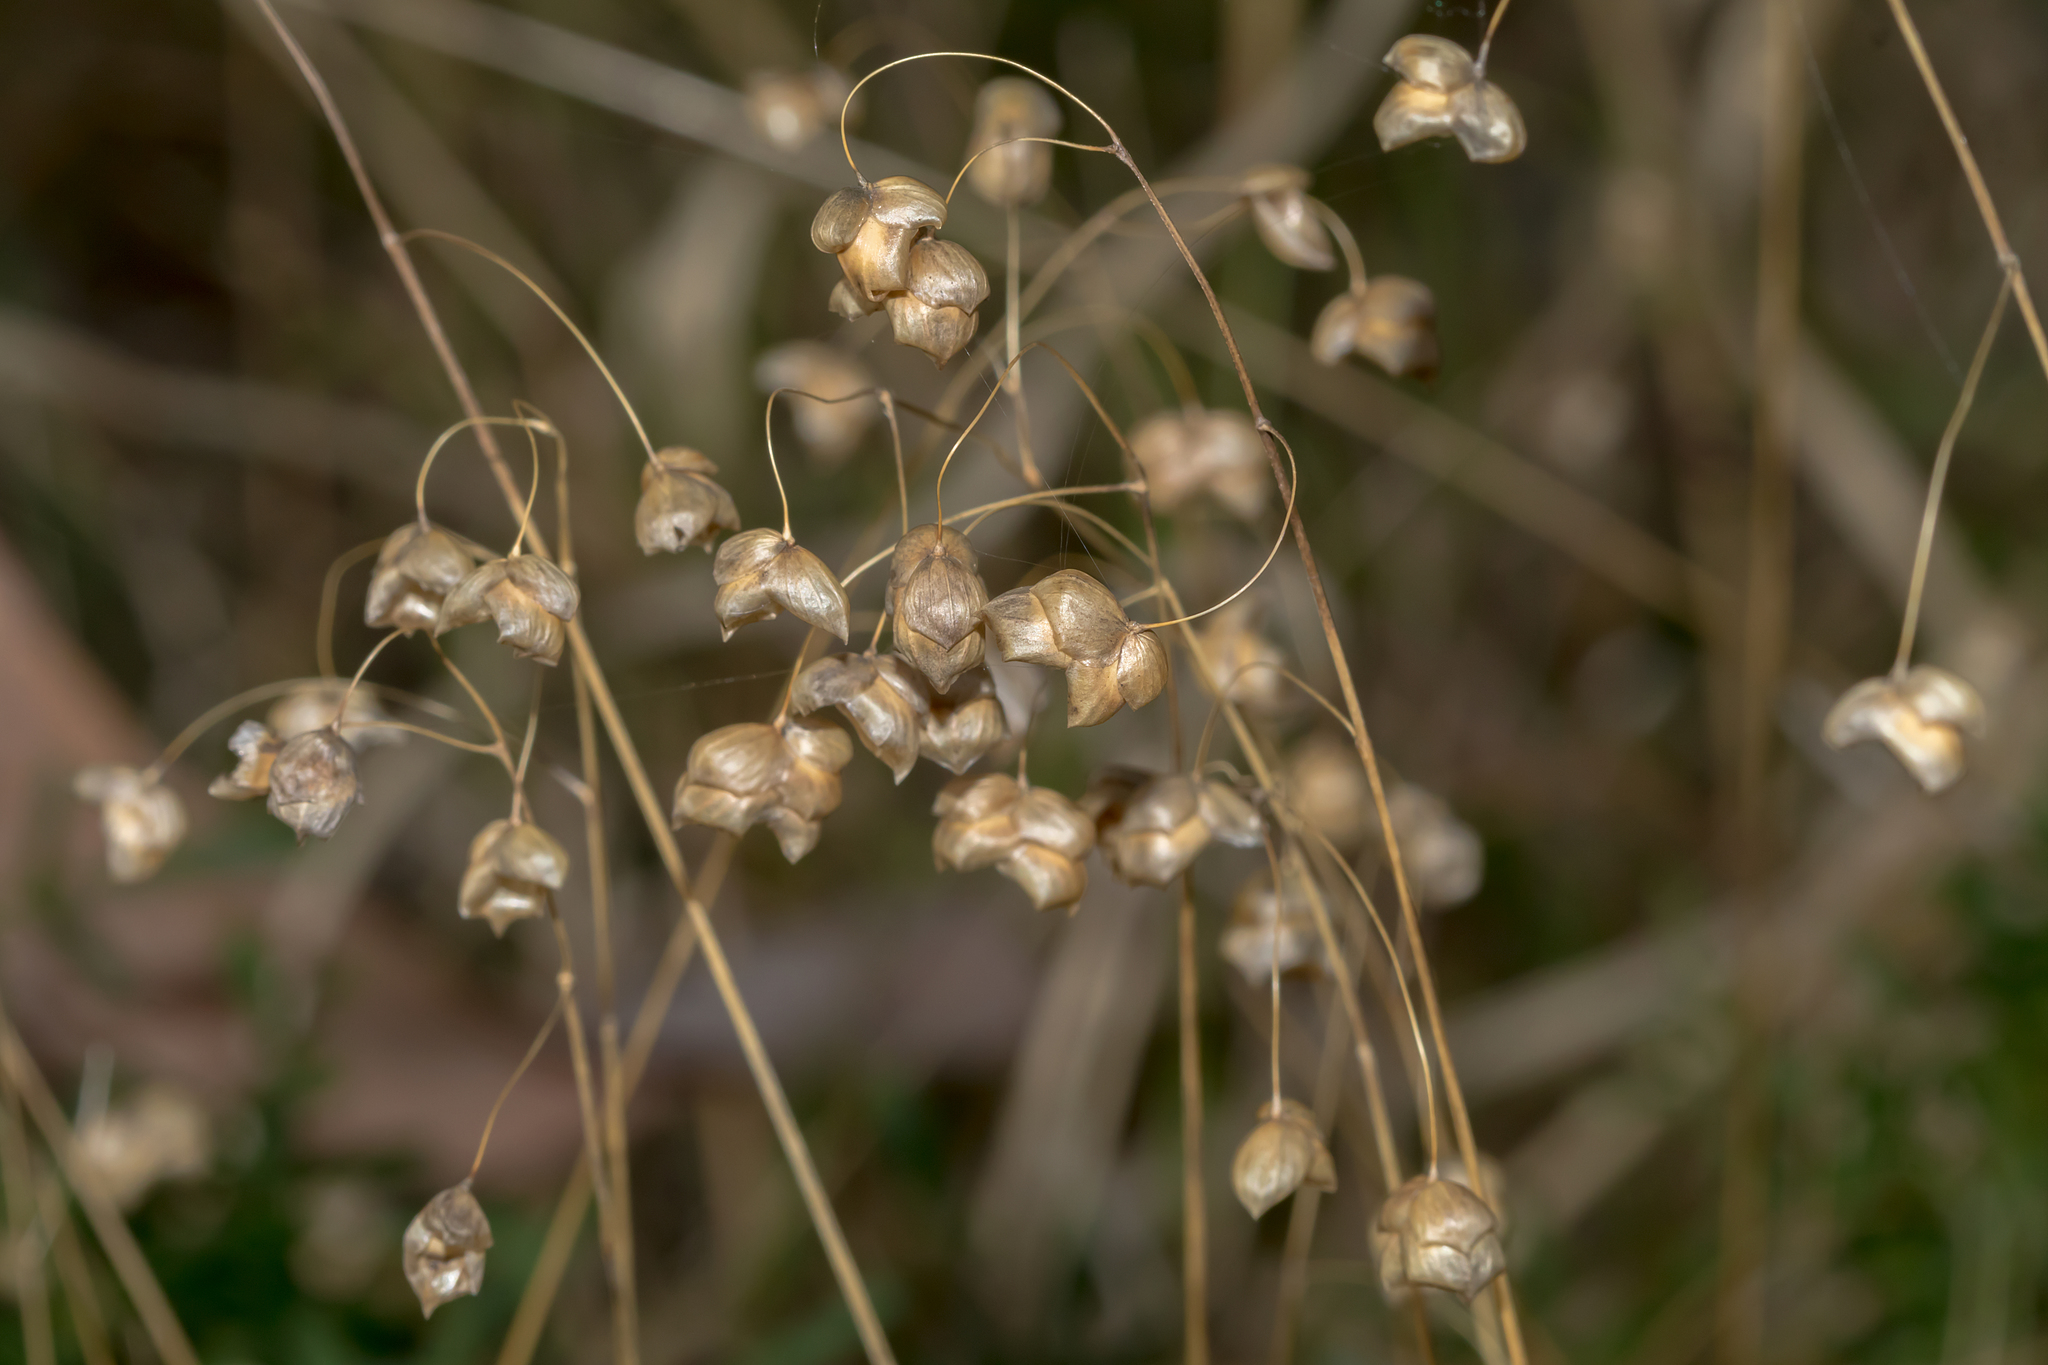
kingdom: Plantae
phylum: Tracheophyta
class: Liliopsida
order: Poales
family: Poaceae
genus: Briza
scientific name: Briza minor
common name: Lesser quaking-grass
